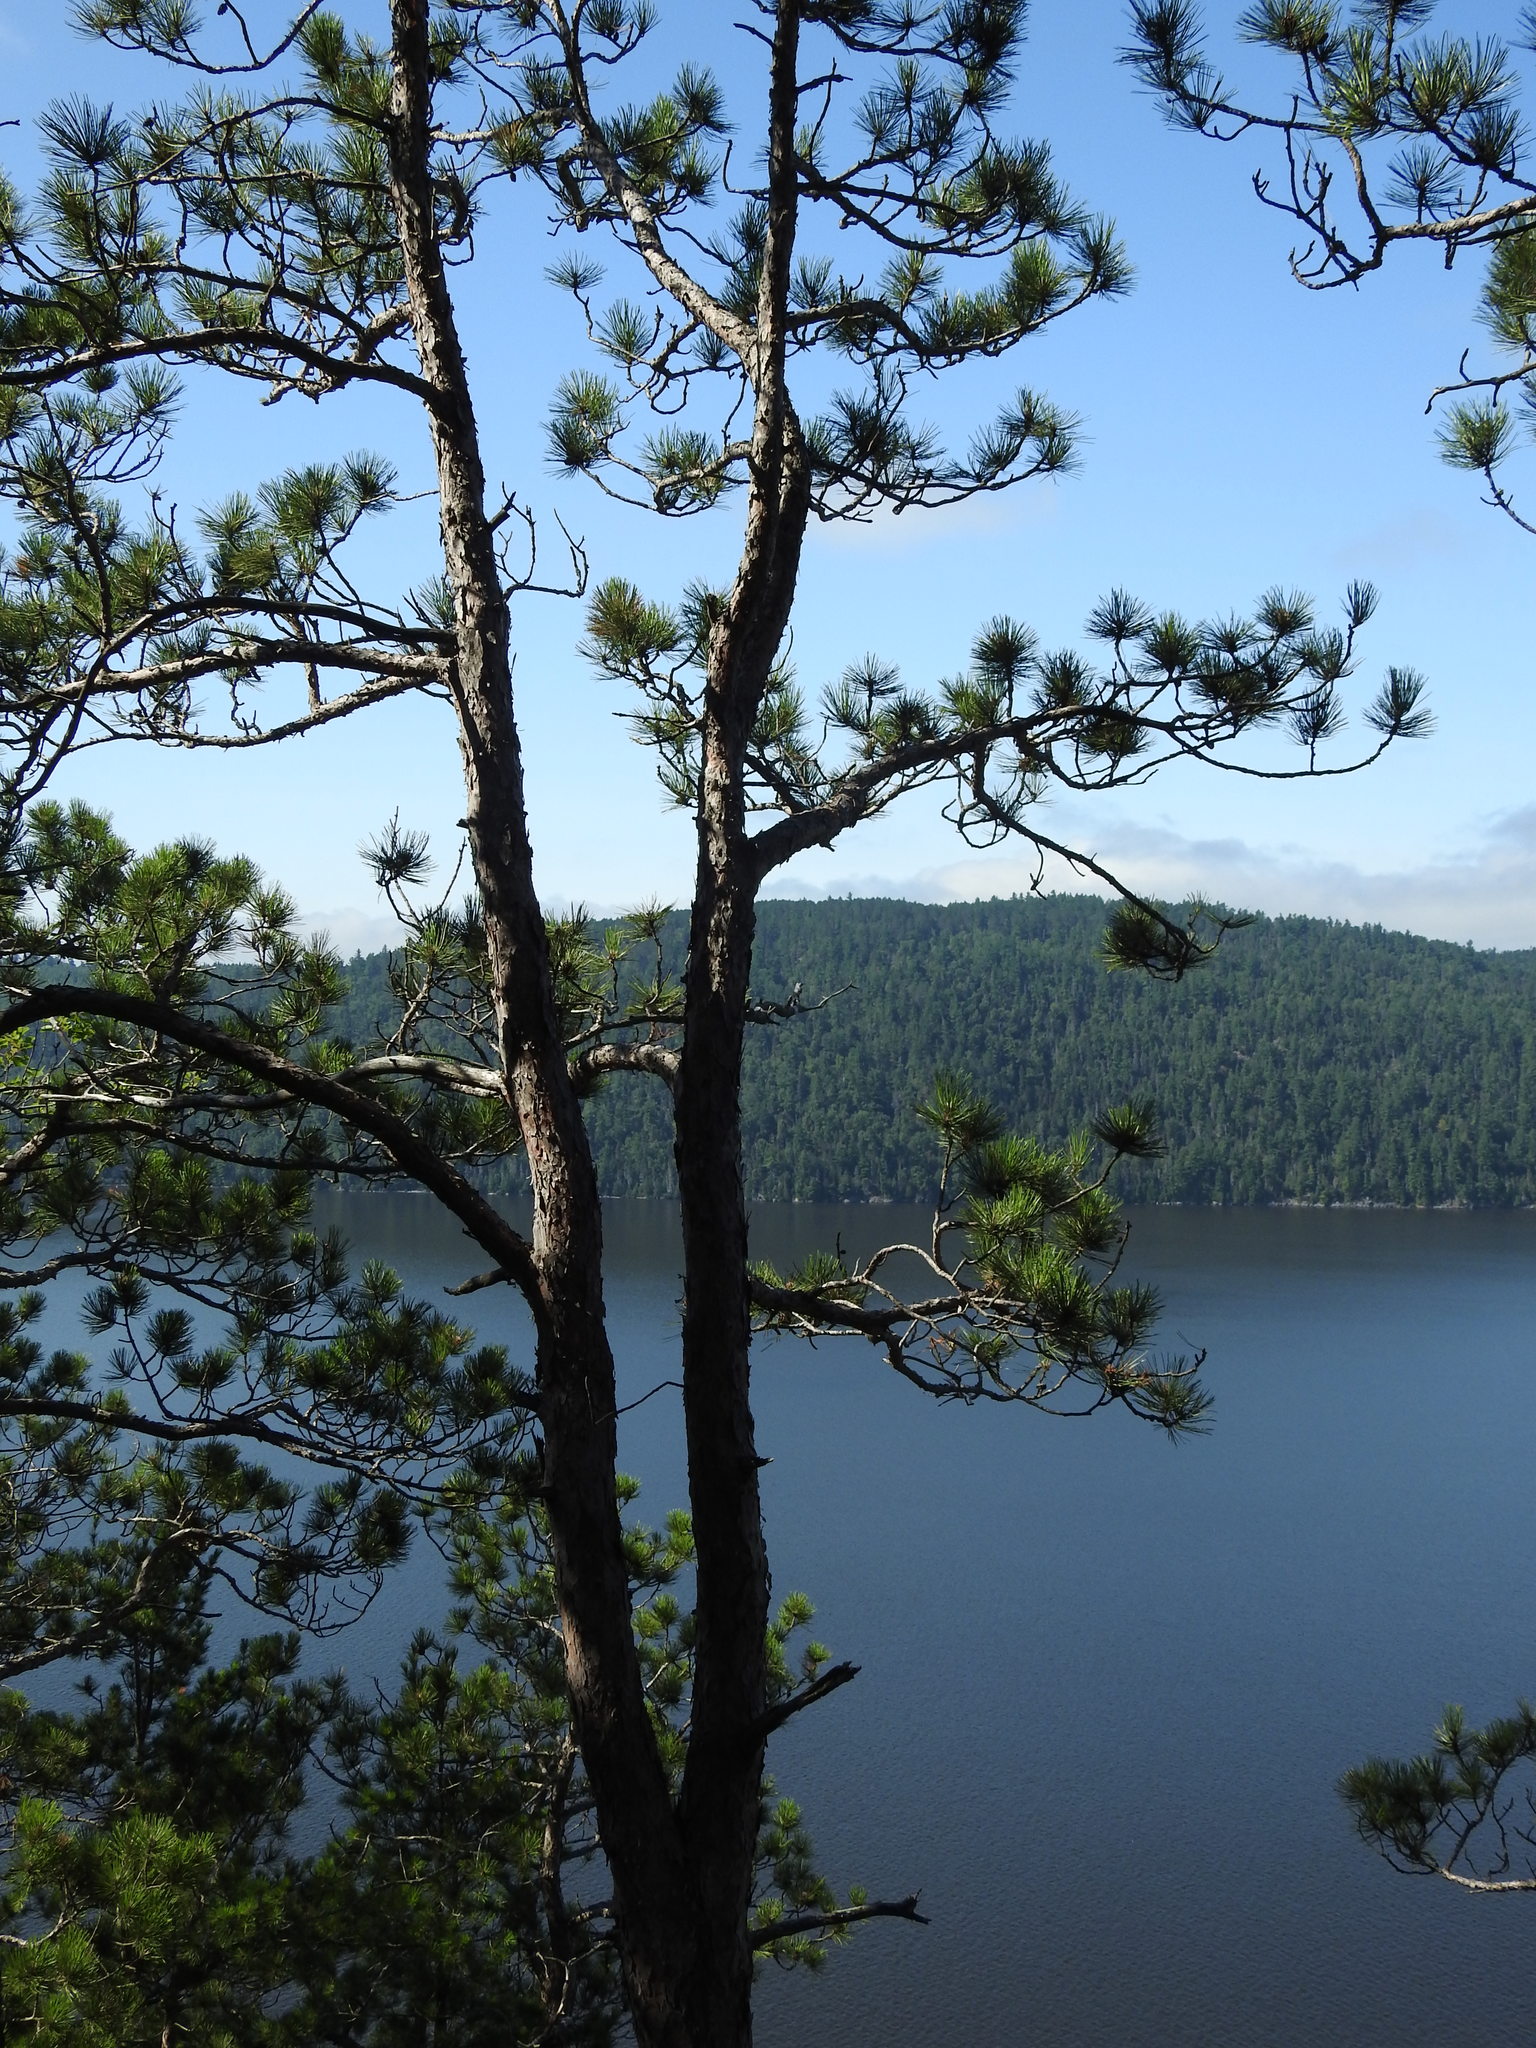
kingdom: Plantae
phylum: Tracheophyta
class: Pinopsida
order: Pinales
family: Pinaceae
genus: Pinus
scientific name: Pinus resinosa
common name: Norway pine
